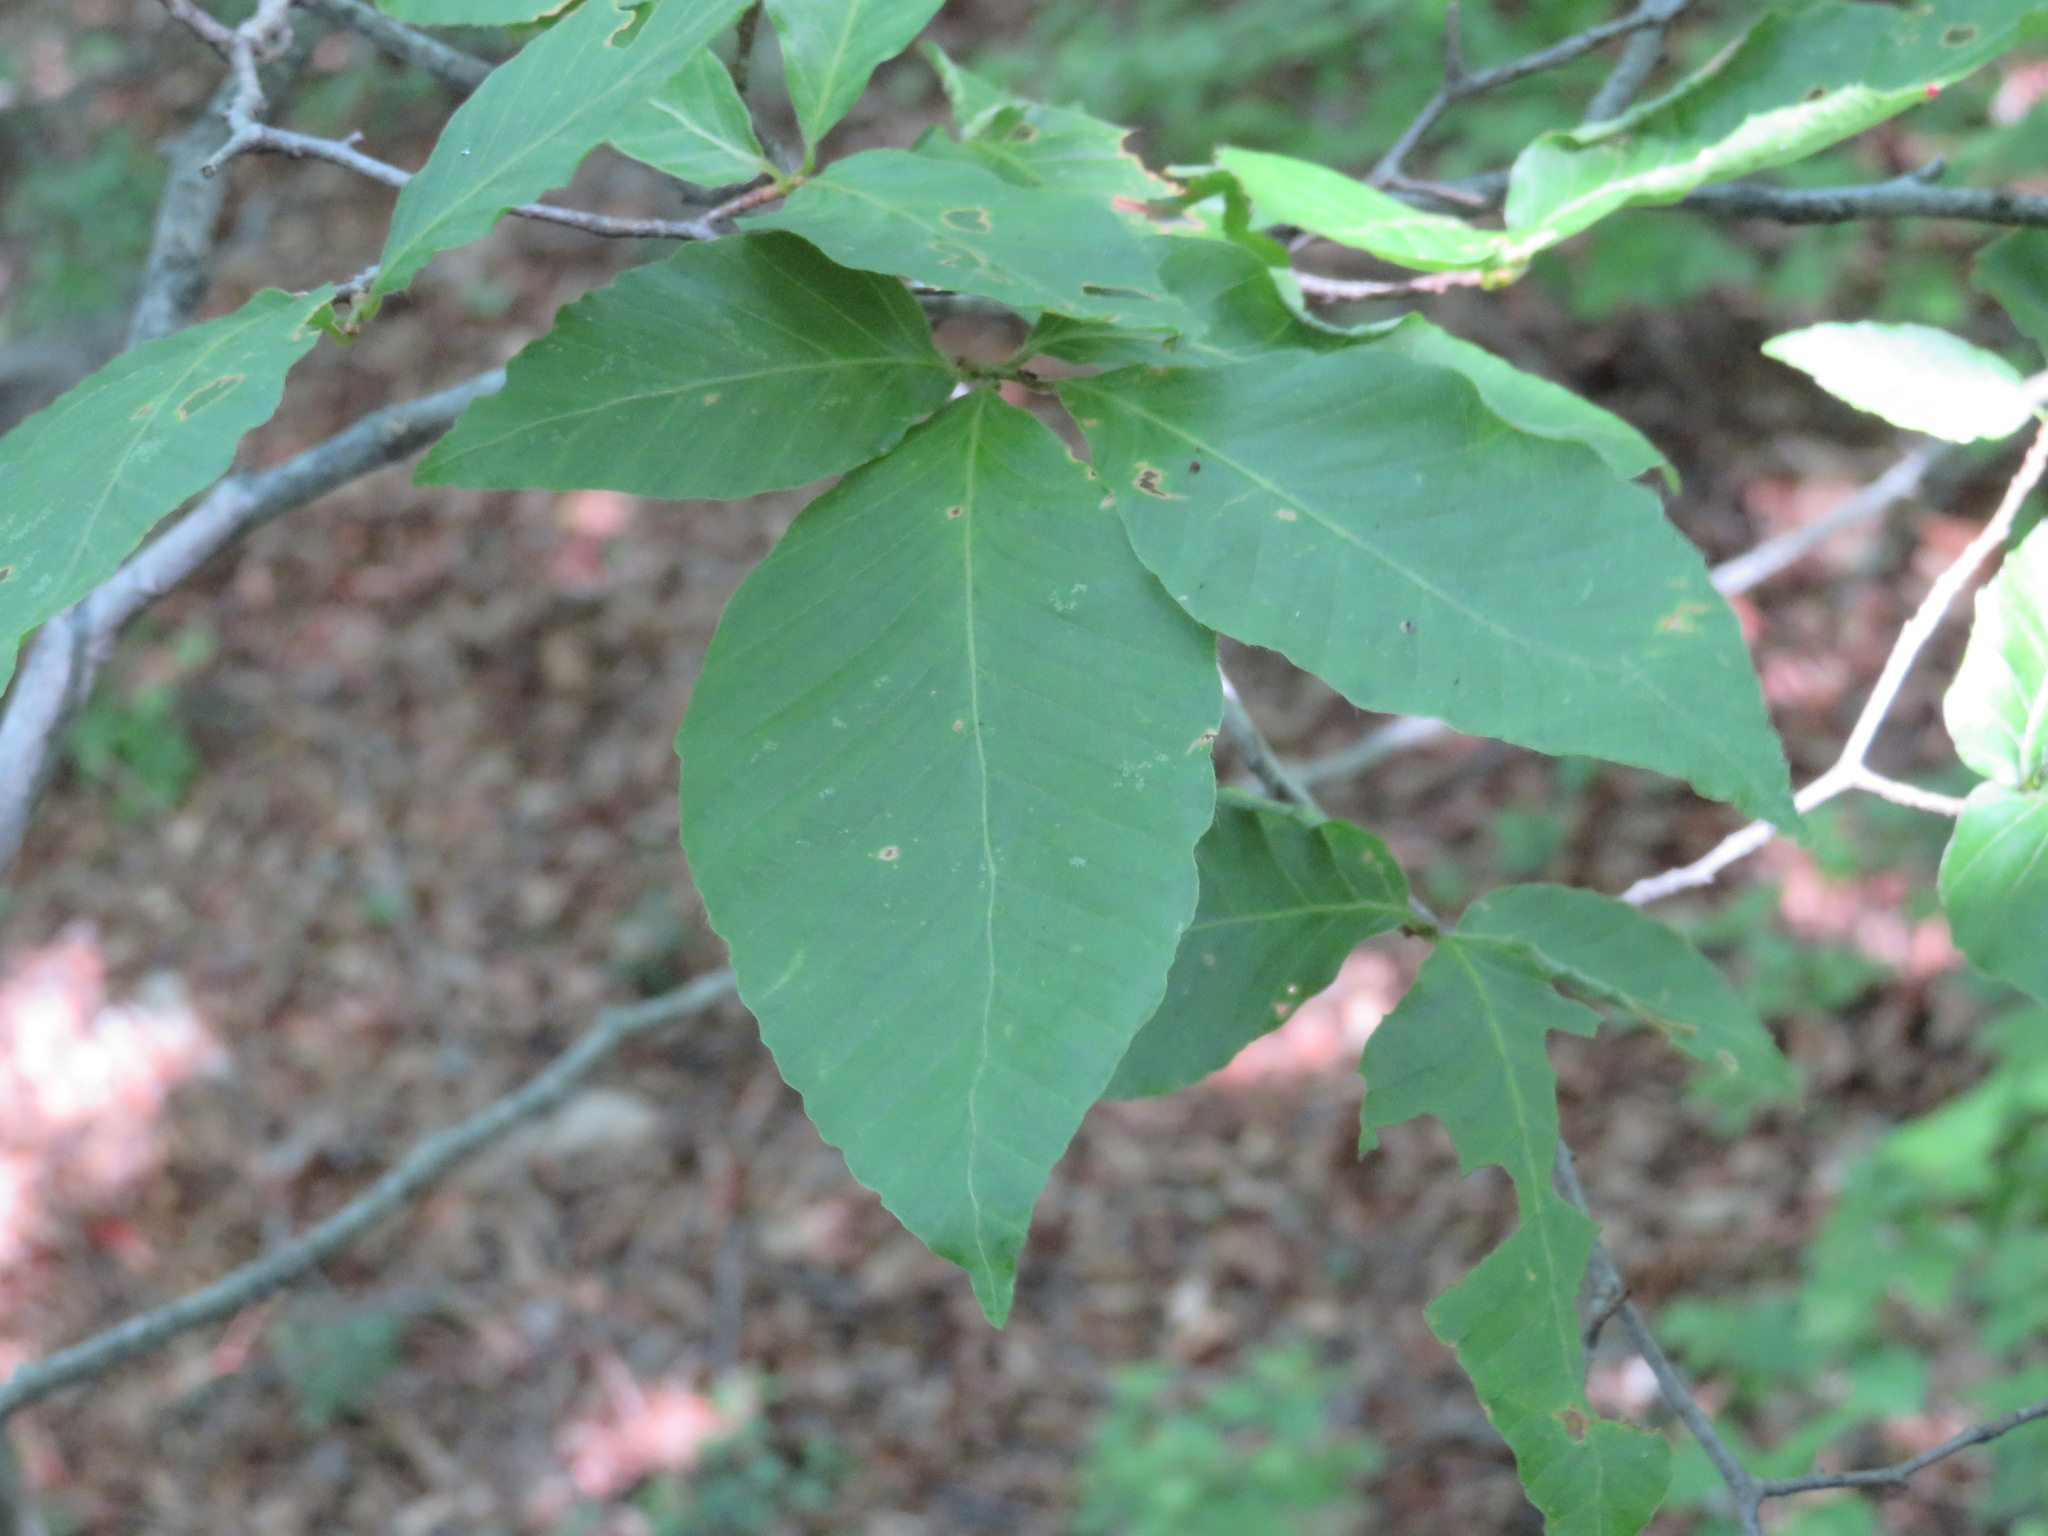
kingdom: Plantae
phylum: Tracheophyta
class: Magnoliopsida
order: Fagales
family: Fagaceae
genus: Fagus
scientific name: Fagus crenata
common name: Japanese beech
